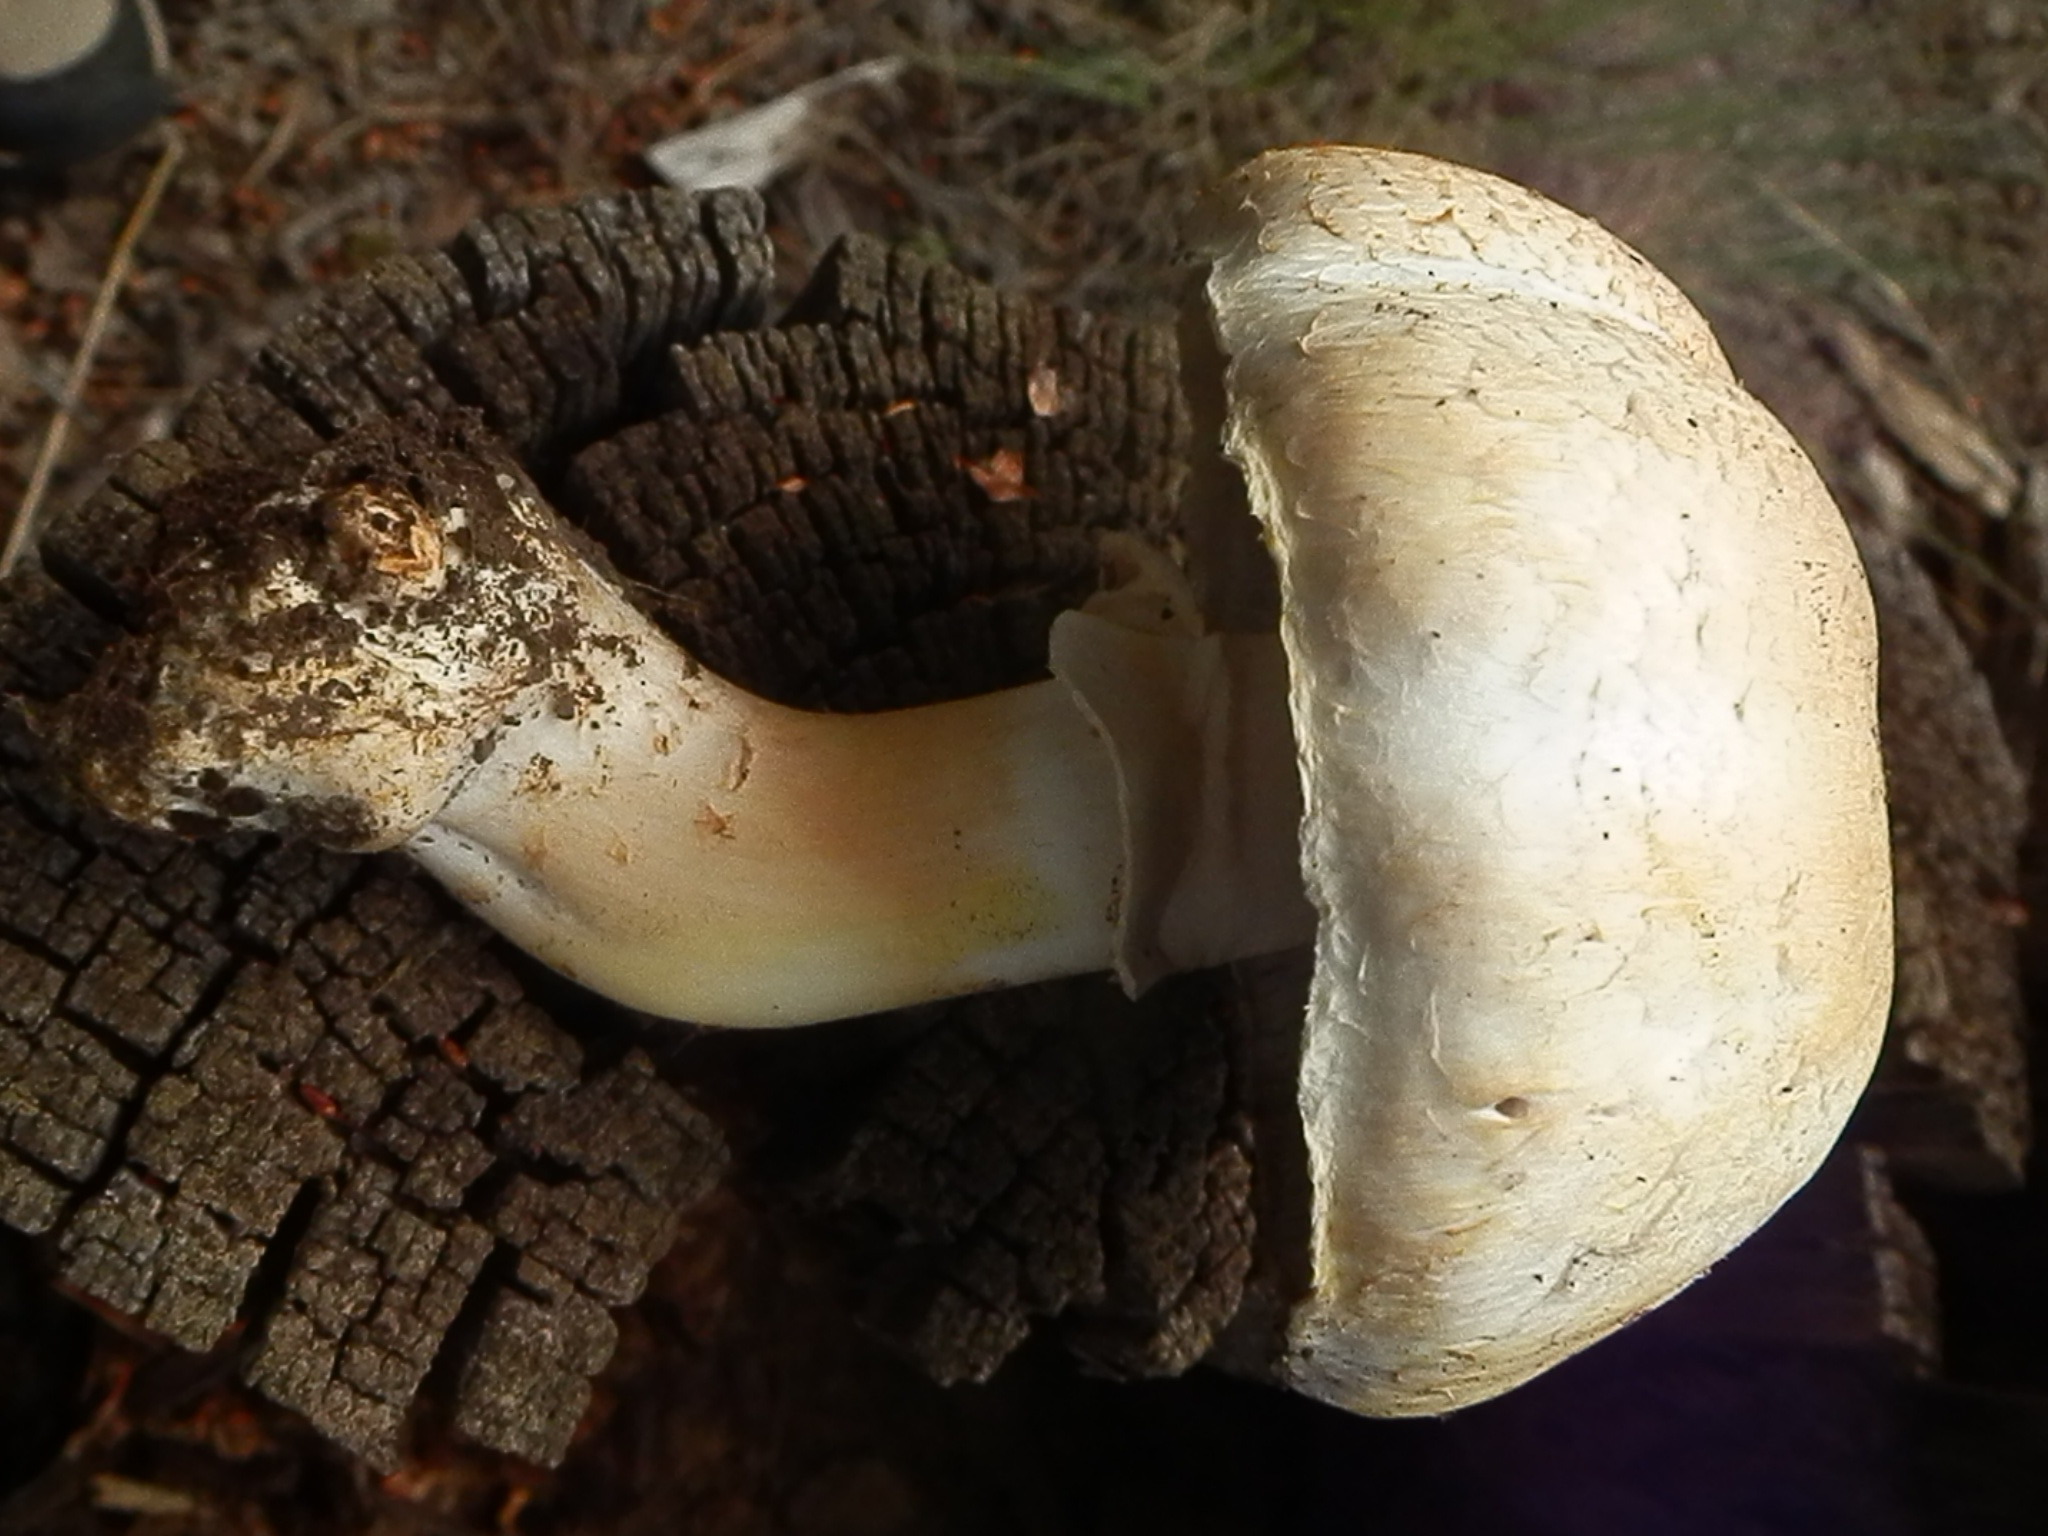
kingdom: Fungi
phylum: Basidiomycota
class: Agaricomycetes
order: Agaricales
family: Agaricaceae
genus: Agaricus
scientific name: Agaricus didymus
